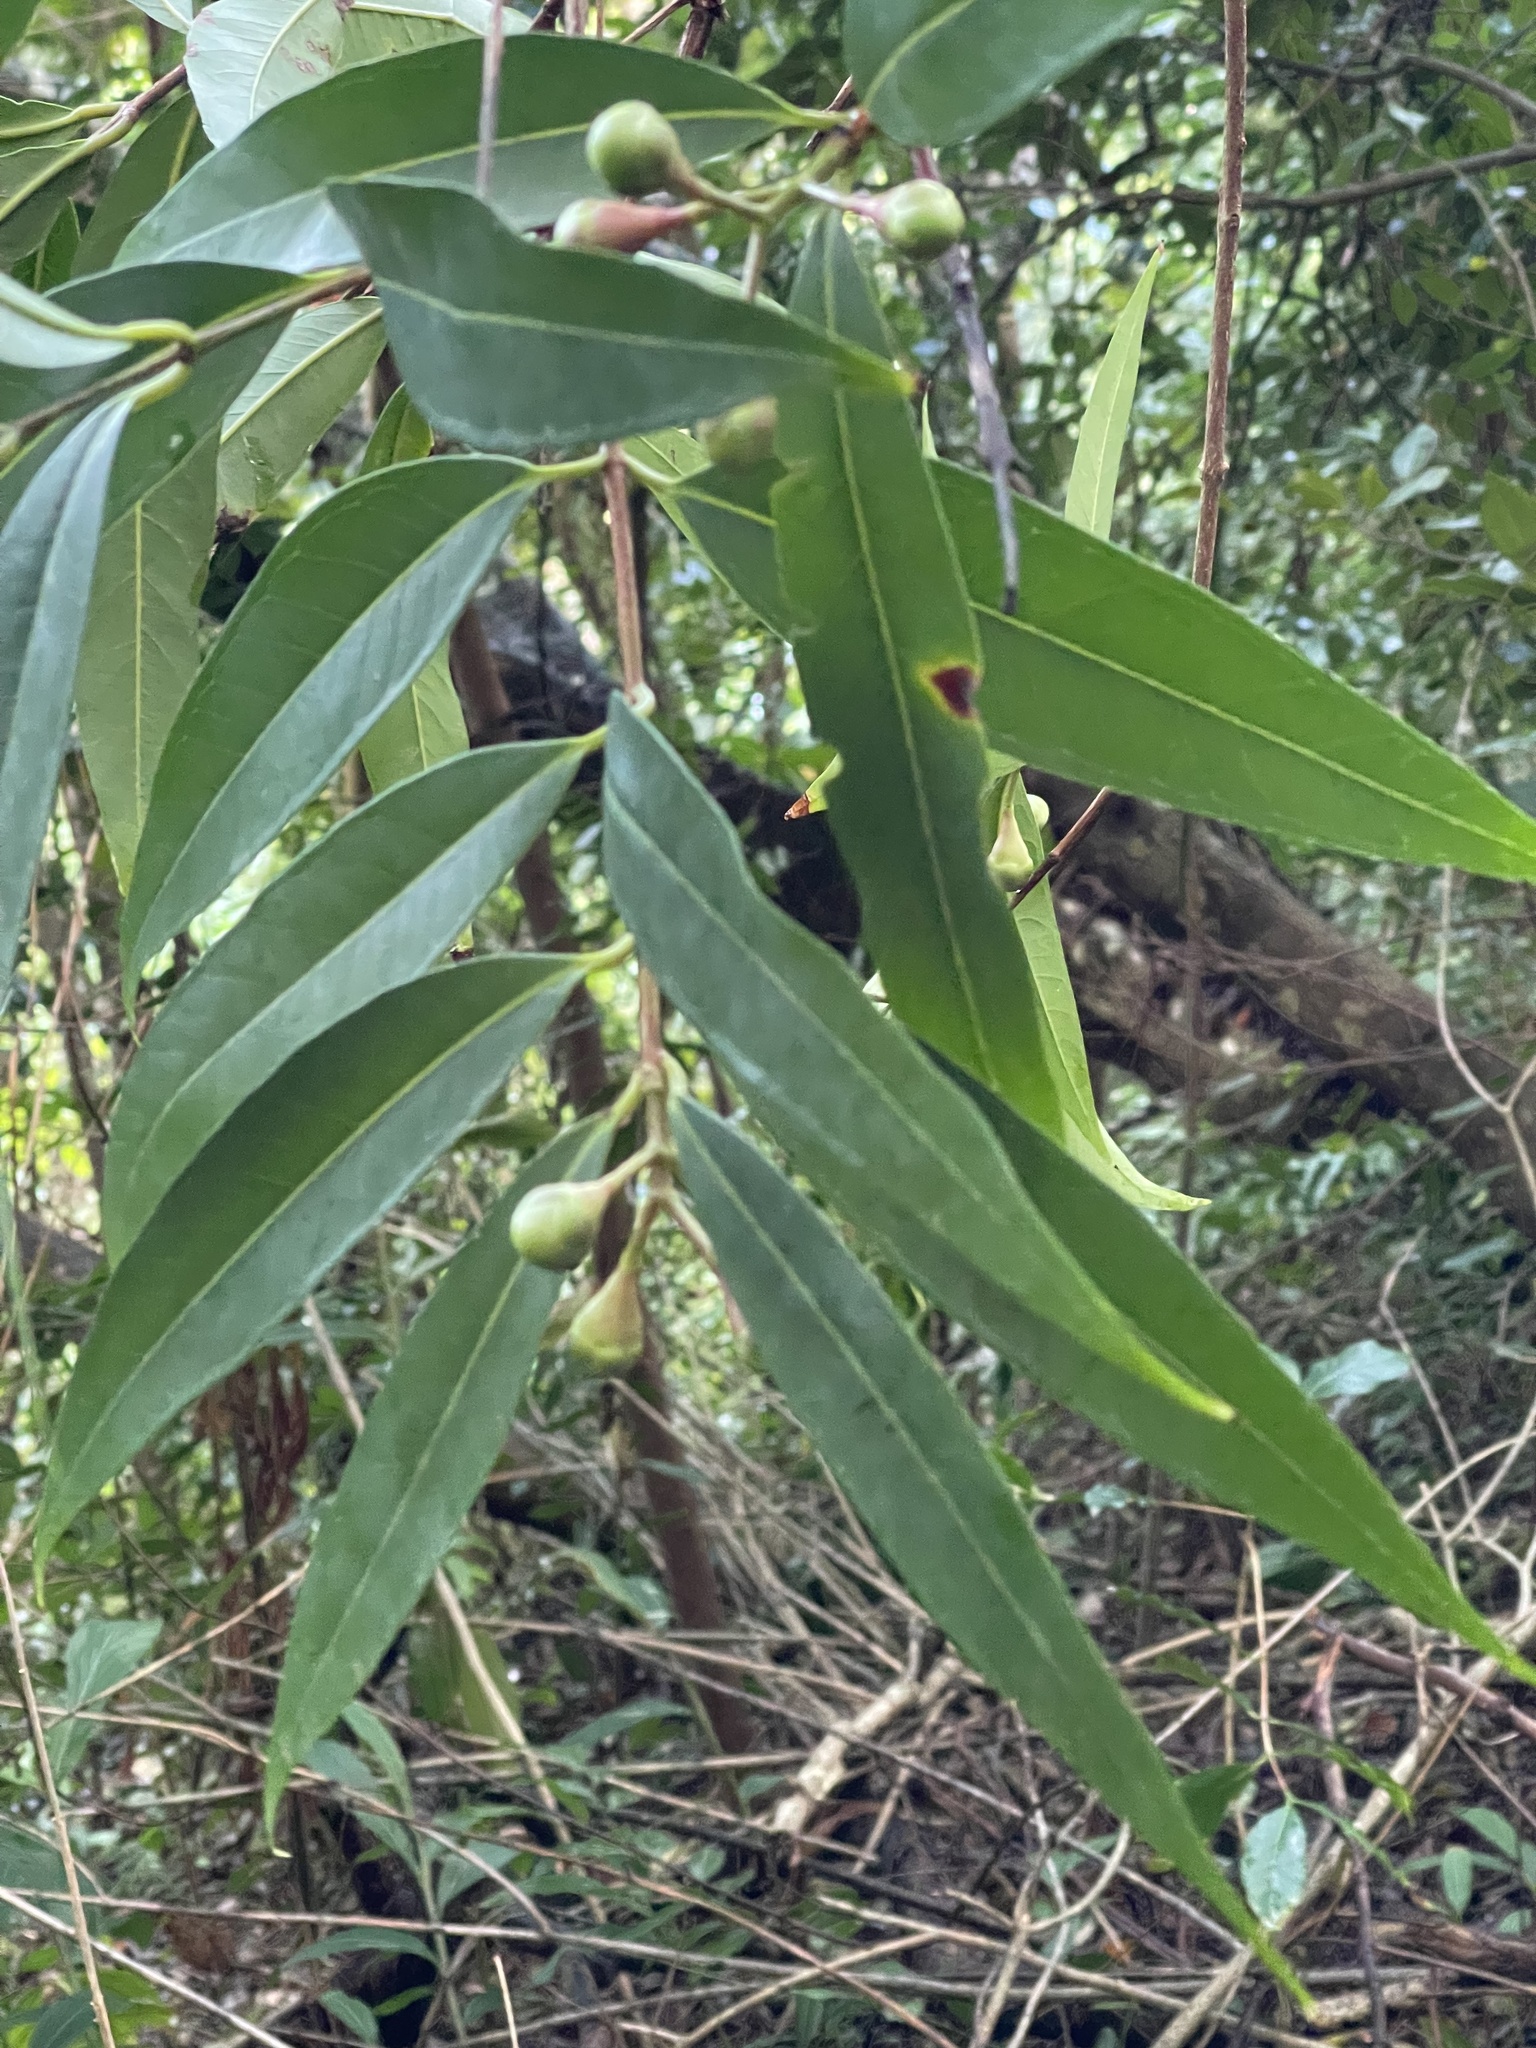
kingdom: Plantae
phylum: Tracheophyta
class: Magnoliopsida
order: Myrtales
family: Myrtaceae
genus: Syzygium
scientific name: Syzygium jambos
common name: Malabar plum
